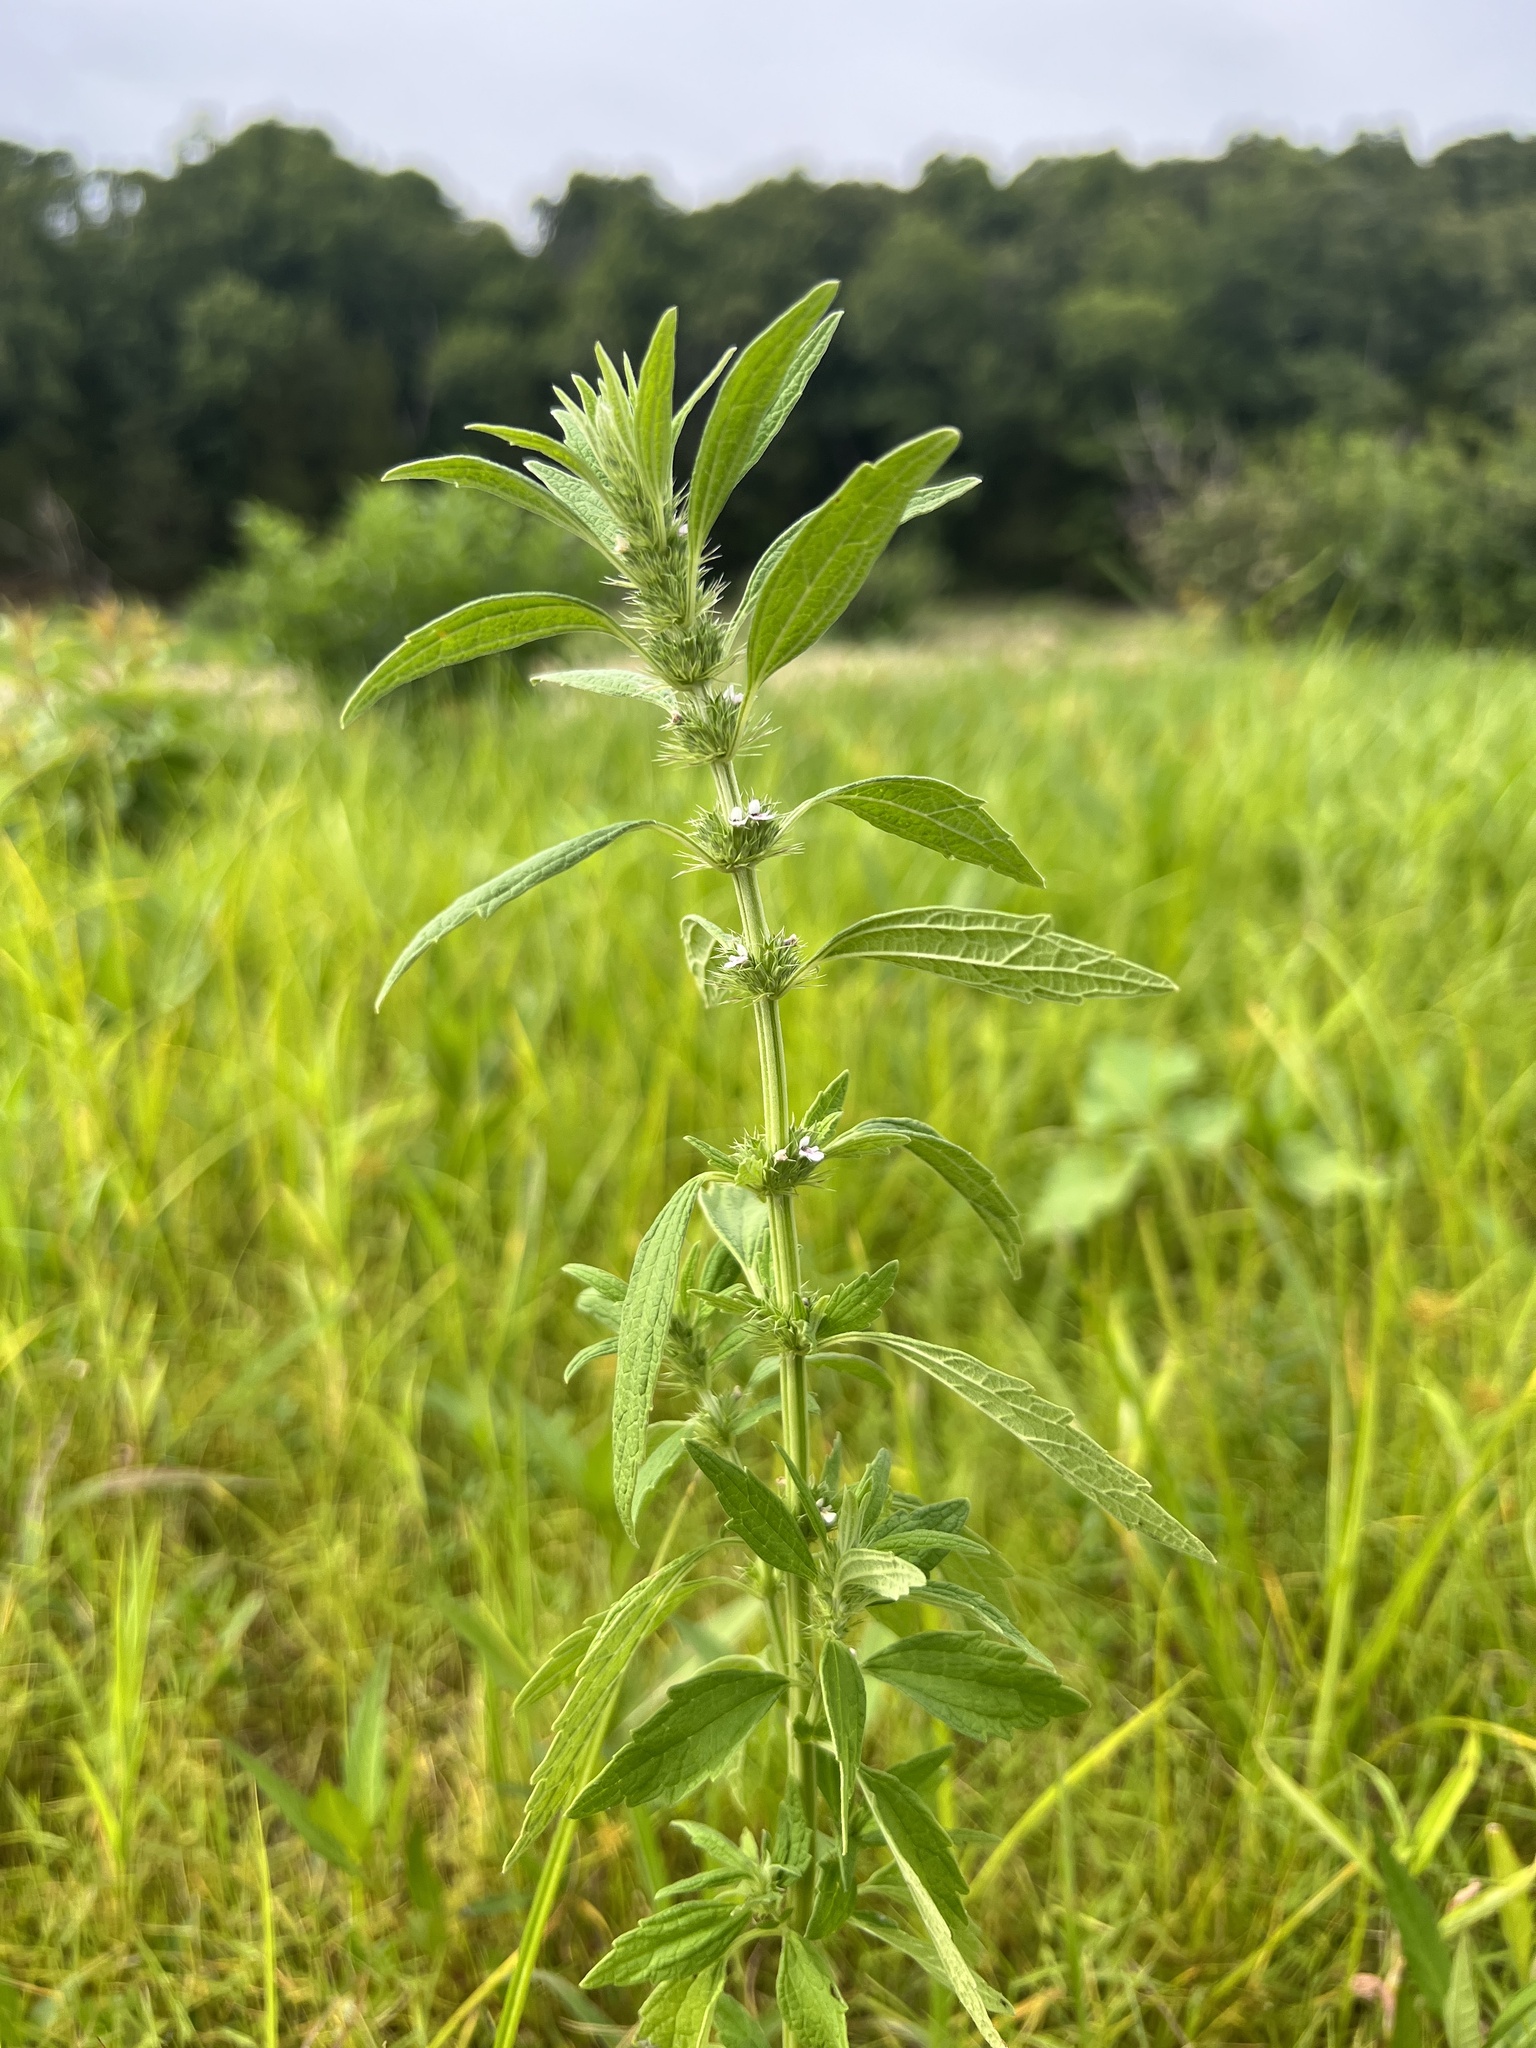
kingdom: Plantae
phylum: Tracheophyta
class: Magnoliopsida
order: Lamiales
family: Lamiaceae
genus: Chaiturus
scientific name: Chaiturus marrubiastrum
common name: Lion's tail
